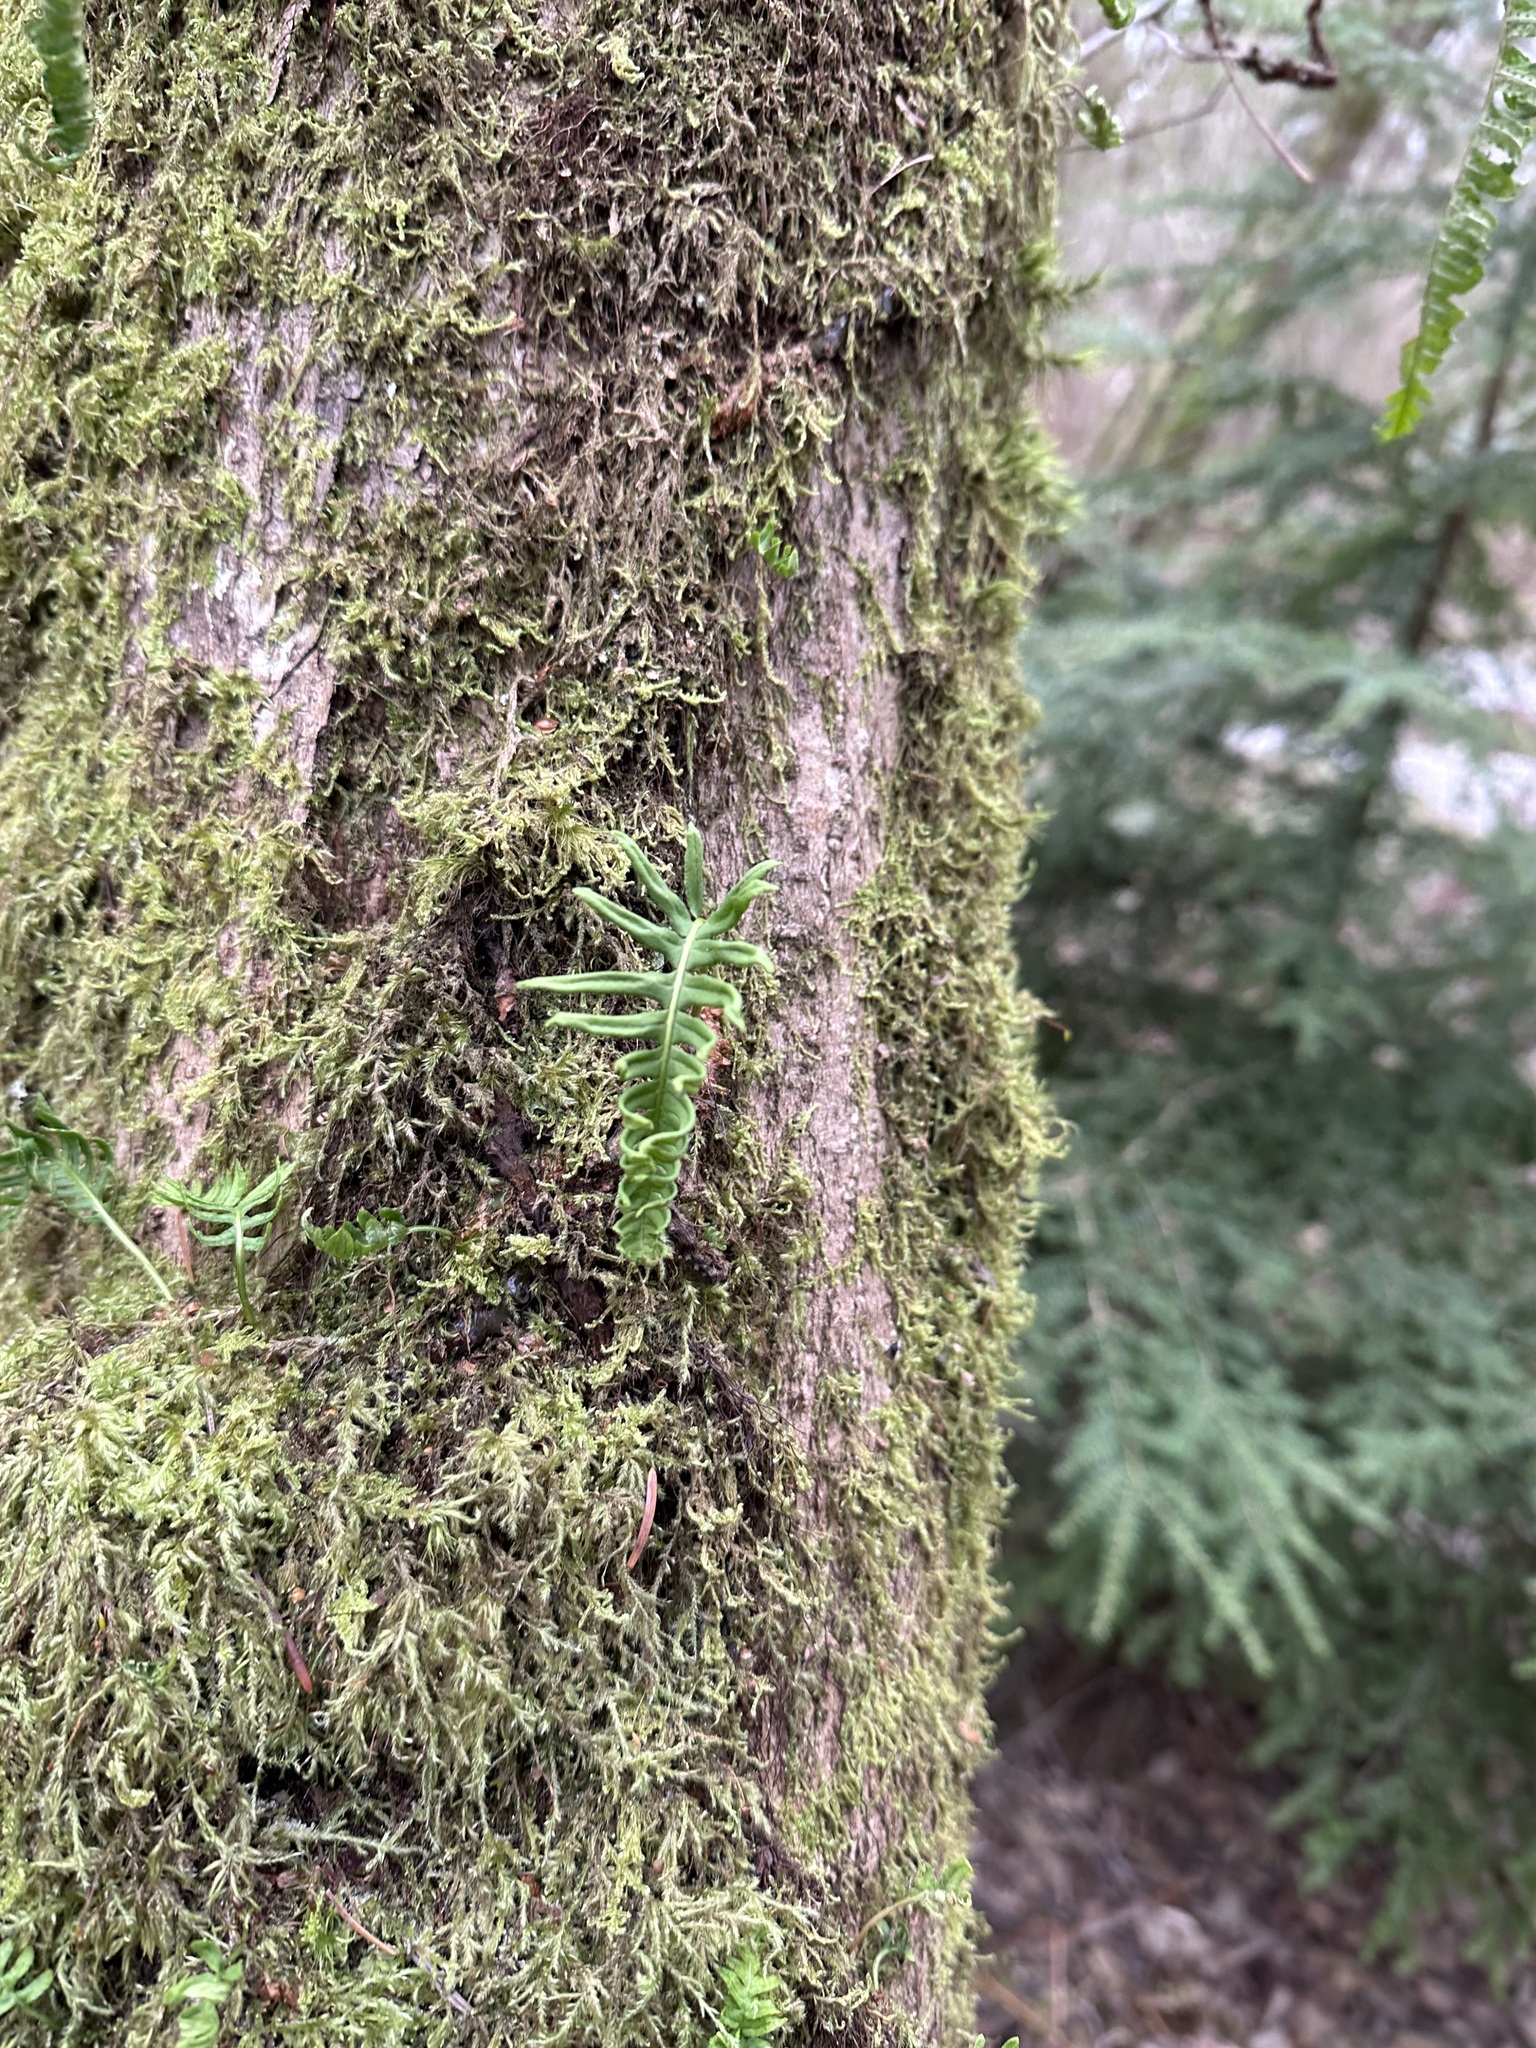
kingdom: Plantae
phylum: Tracheophyta
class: Polypodiopsida
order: Polypodiales
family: Polypodiaceae
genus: Polypodium
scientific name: Polypodium glycyrrhiza
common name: Licorice fern
